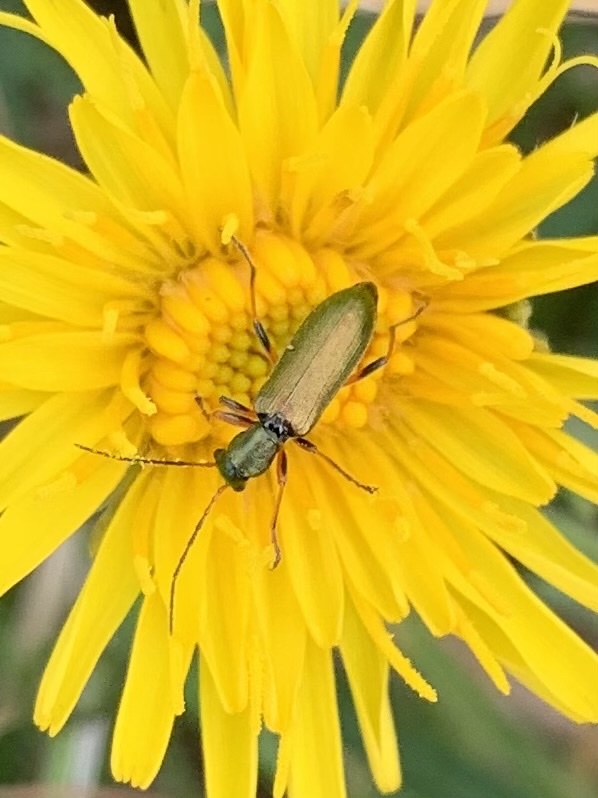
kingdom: Animalia
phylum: Arthropoda
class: Insecta
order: Coleoptera
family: Oedemeridae
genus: Chrysanthia
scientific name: Chrysanthia geniculata
